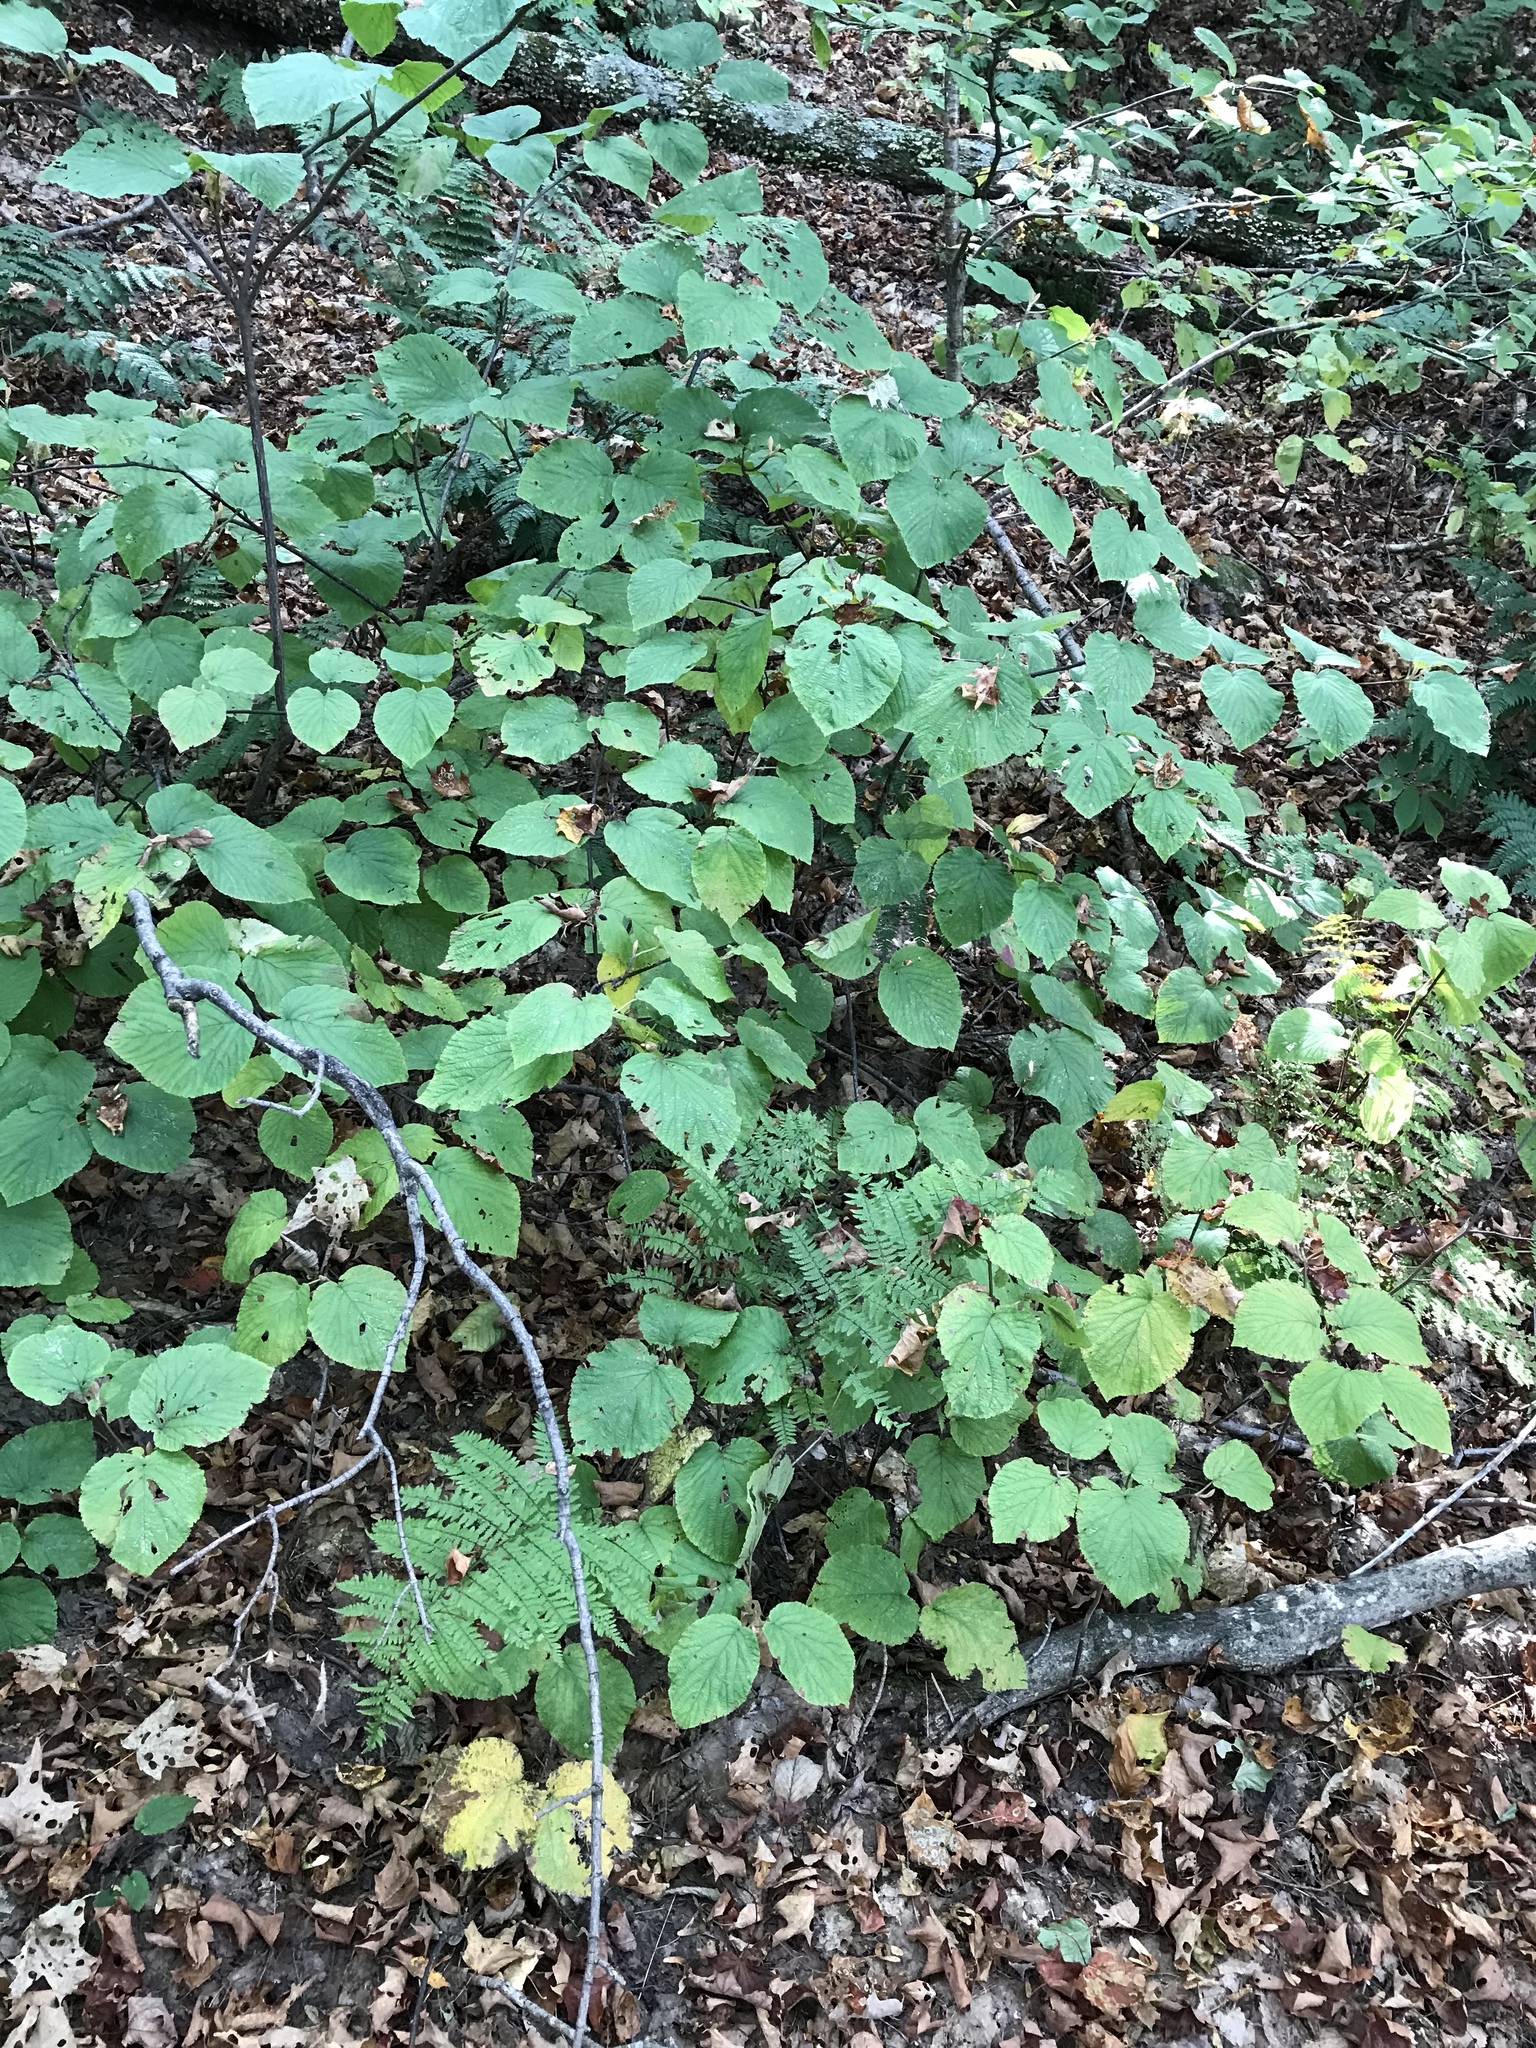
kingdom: Plantae
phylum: Tracheophyta
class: Magnoliopsida
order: Dipsacales
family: Viburnaceae
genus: Viburnum
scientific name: Viburnum lantanoides
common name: Hobblebush
